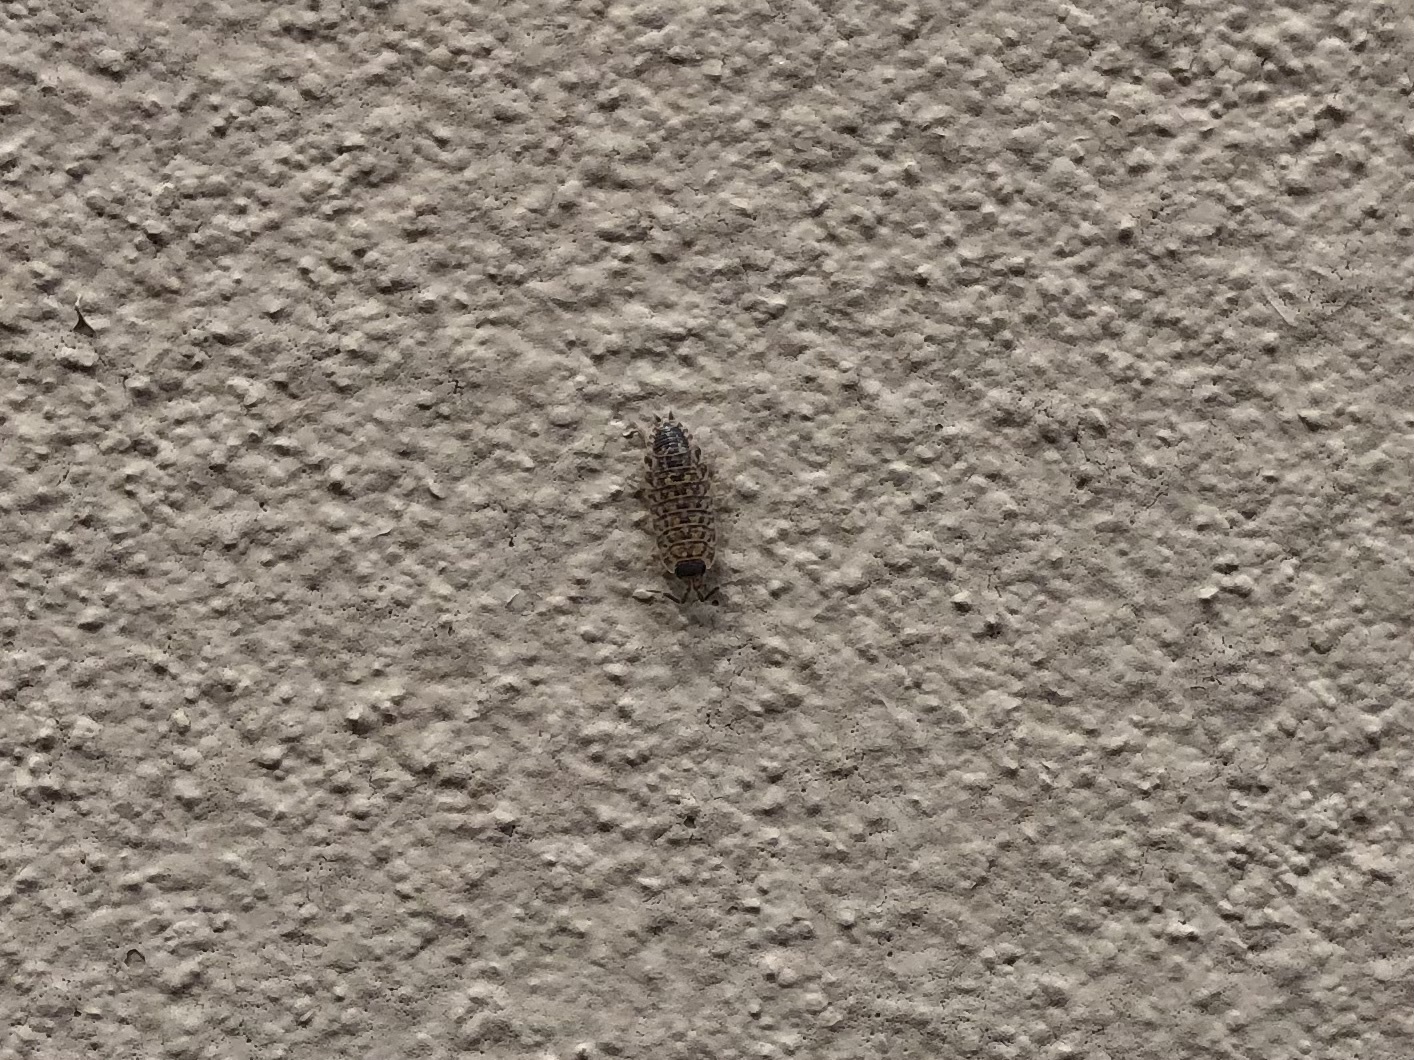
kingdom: Animalia
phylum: Arthropoda
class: Malacostraca
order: Isopoda
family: Porcellionidae
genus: Porcellio
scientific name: Porcellio spinicornis
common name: Painted woodlouse
